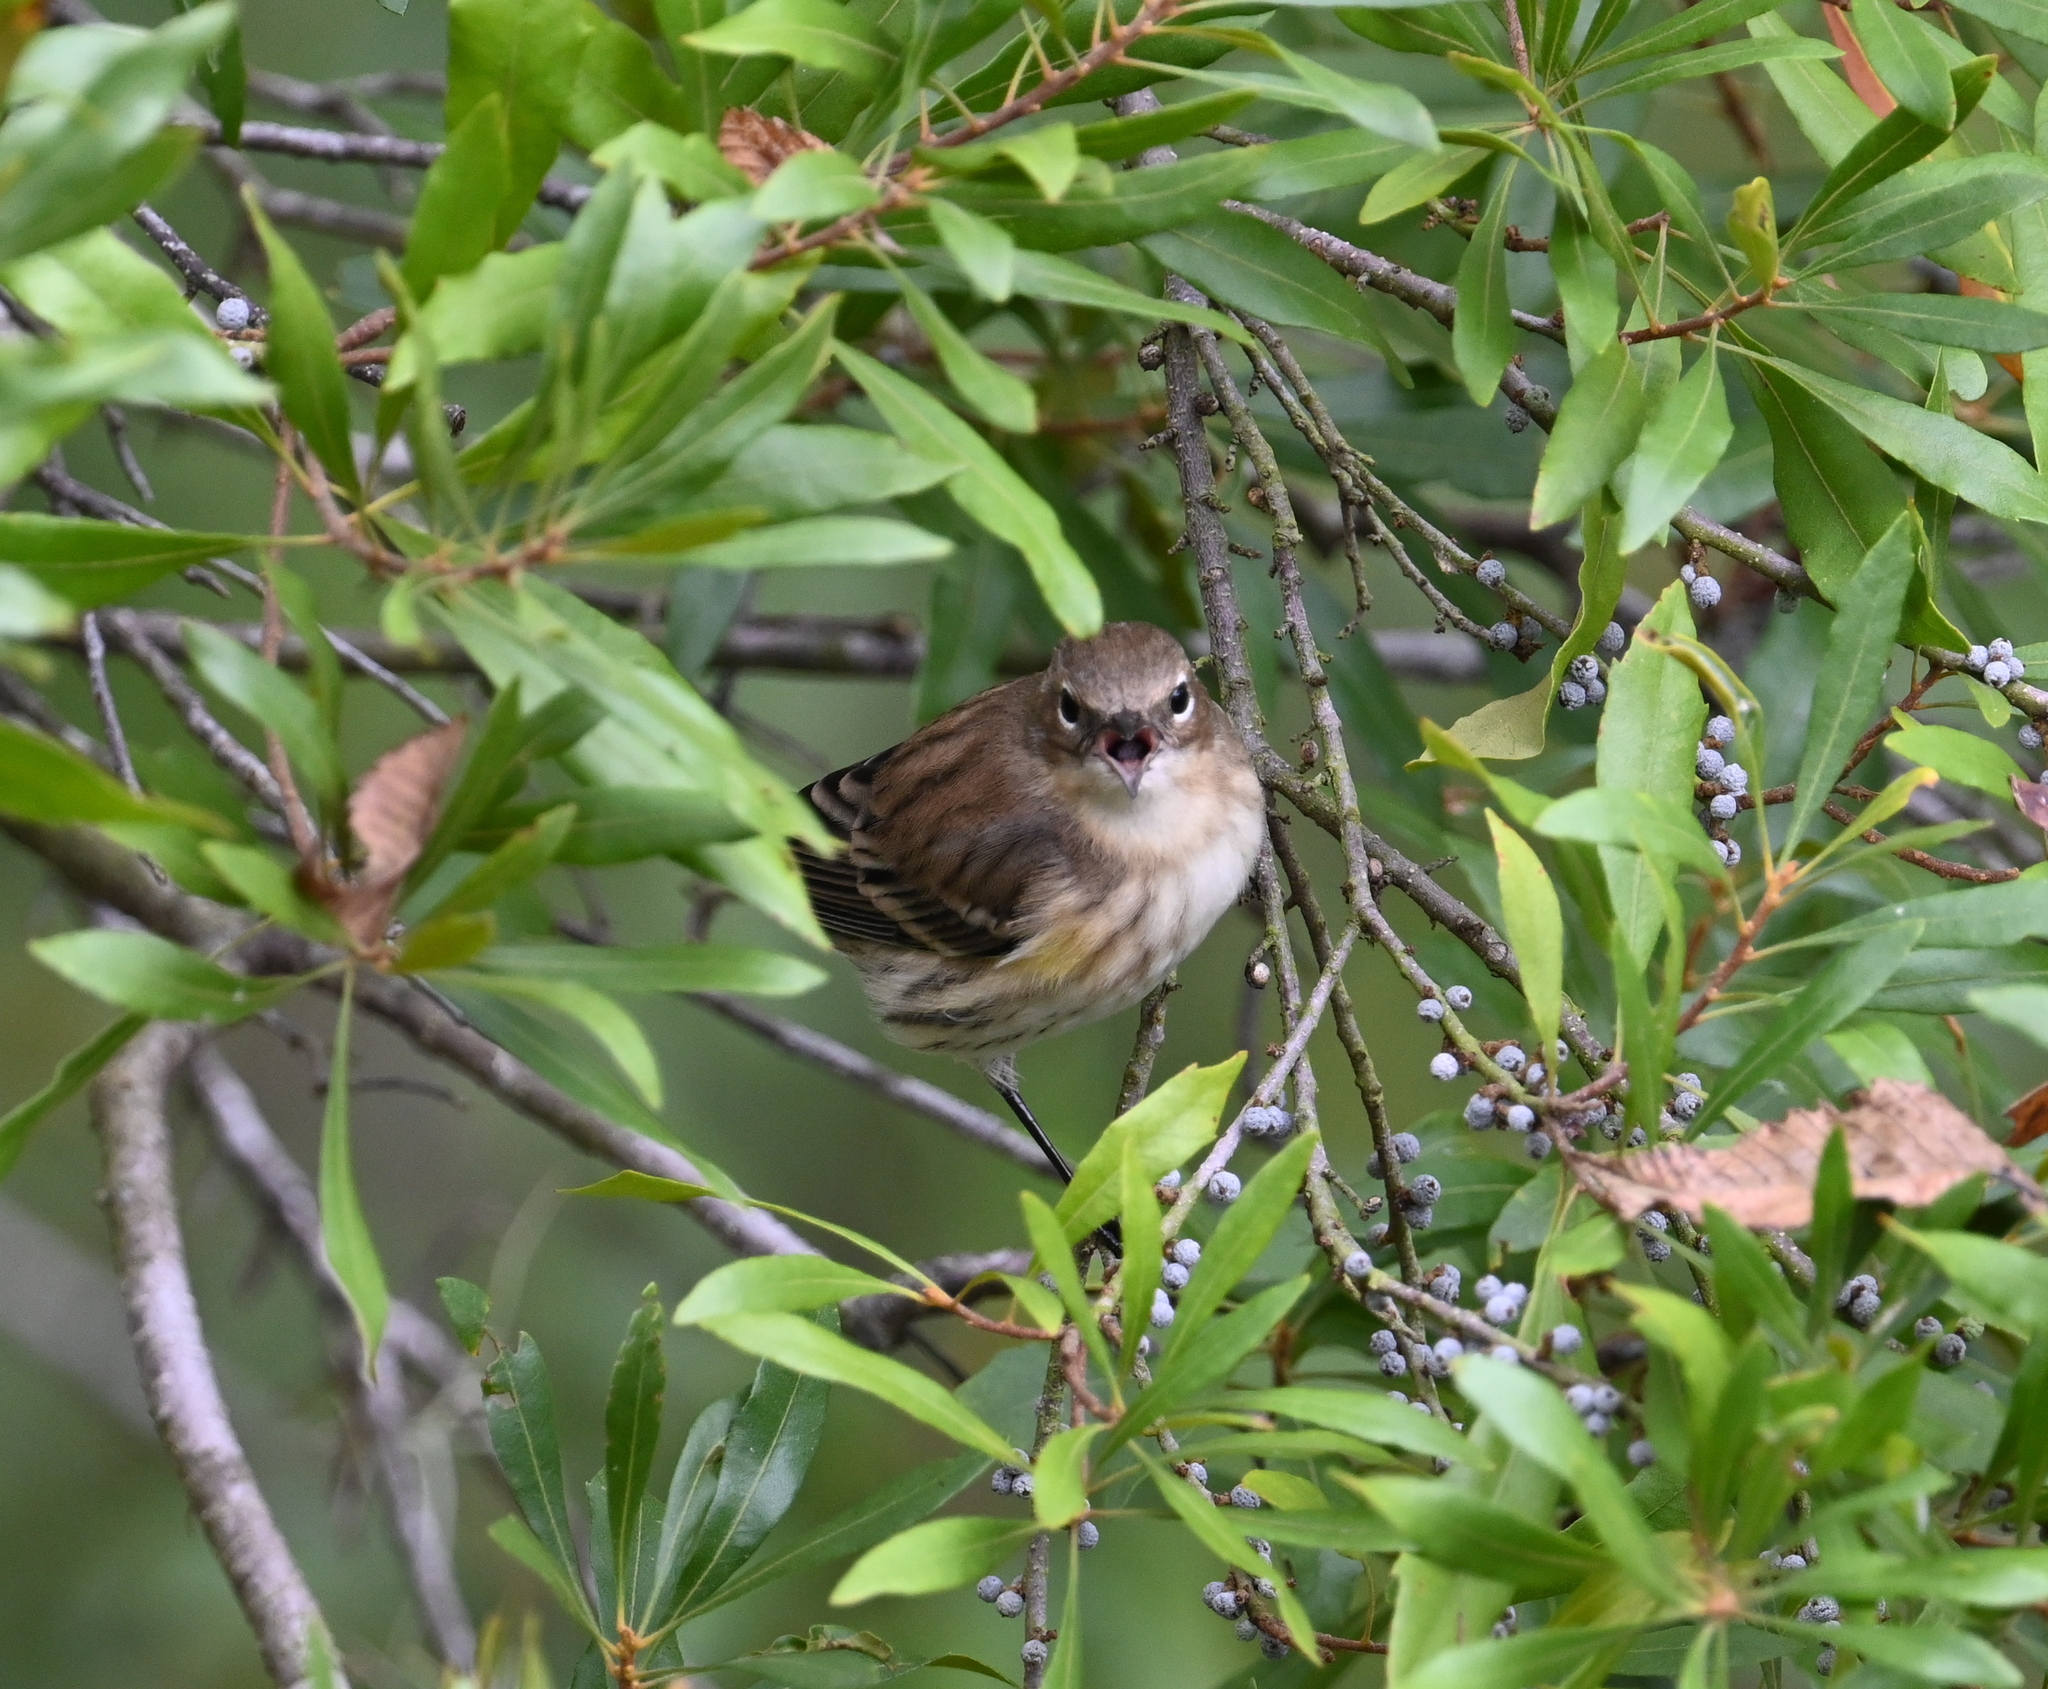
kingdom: Animalia
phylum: Chordata
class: Aves
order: Passeriformes
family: Parulidae
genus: Setophaga
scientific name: Setophaga coronata
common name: Myrtle warbler
